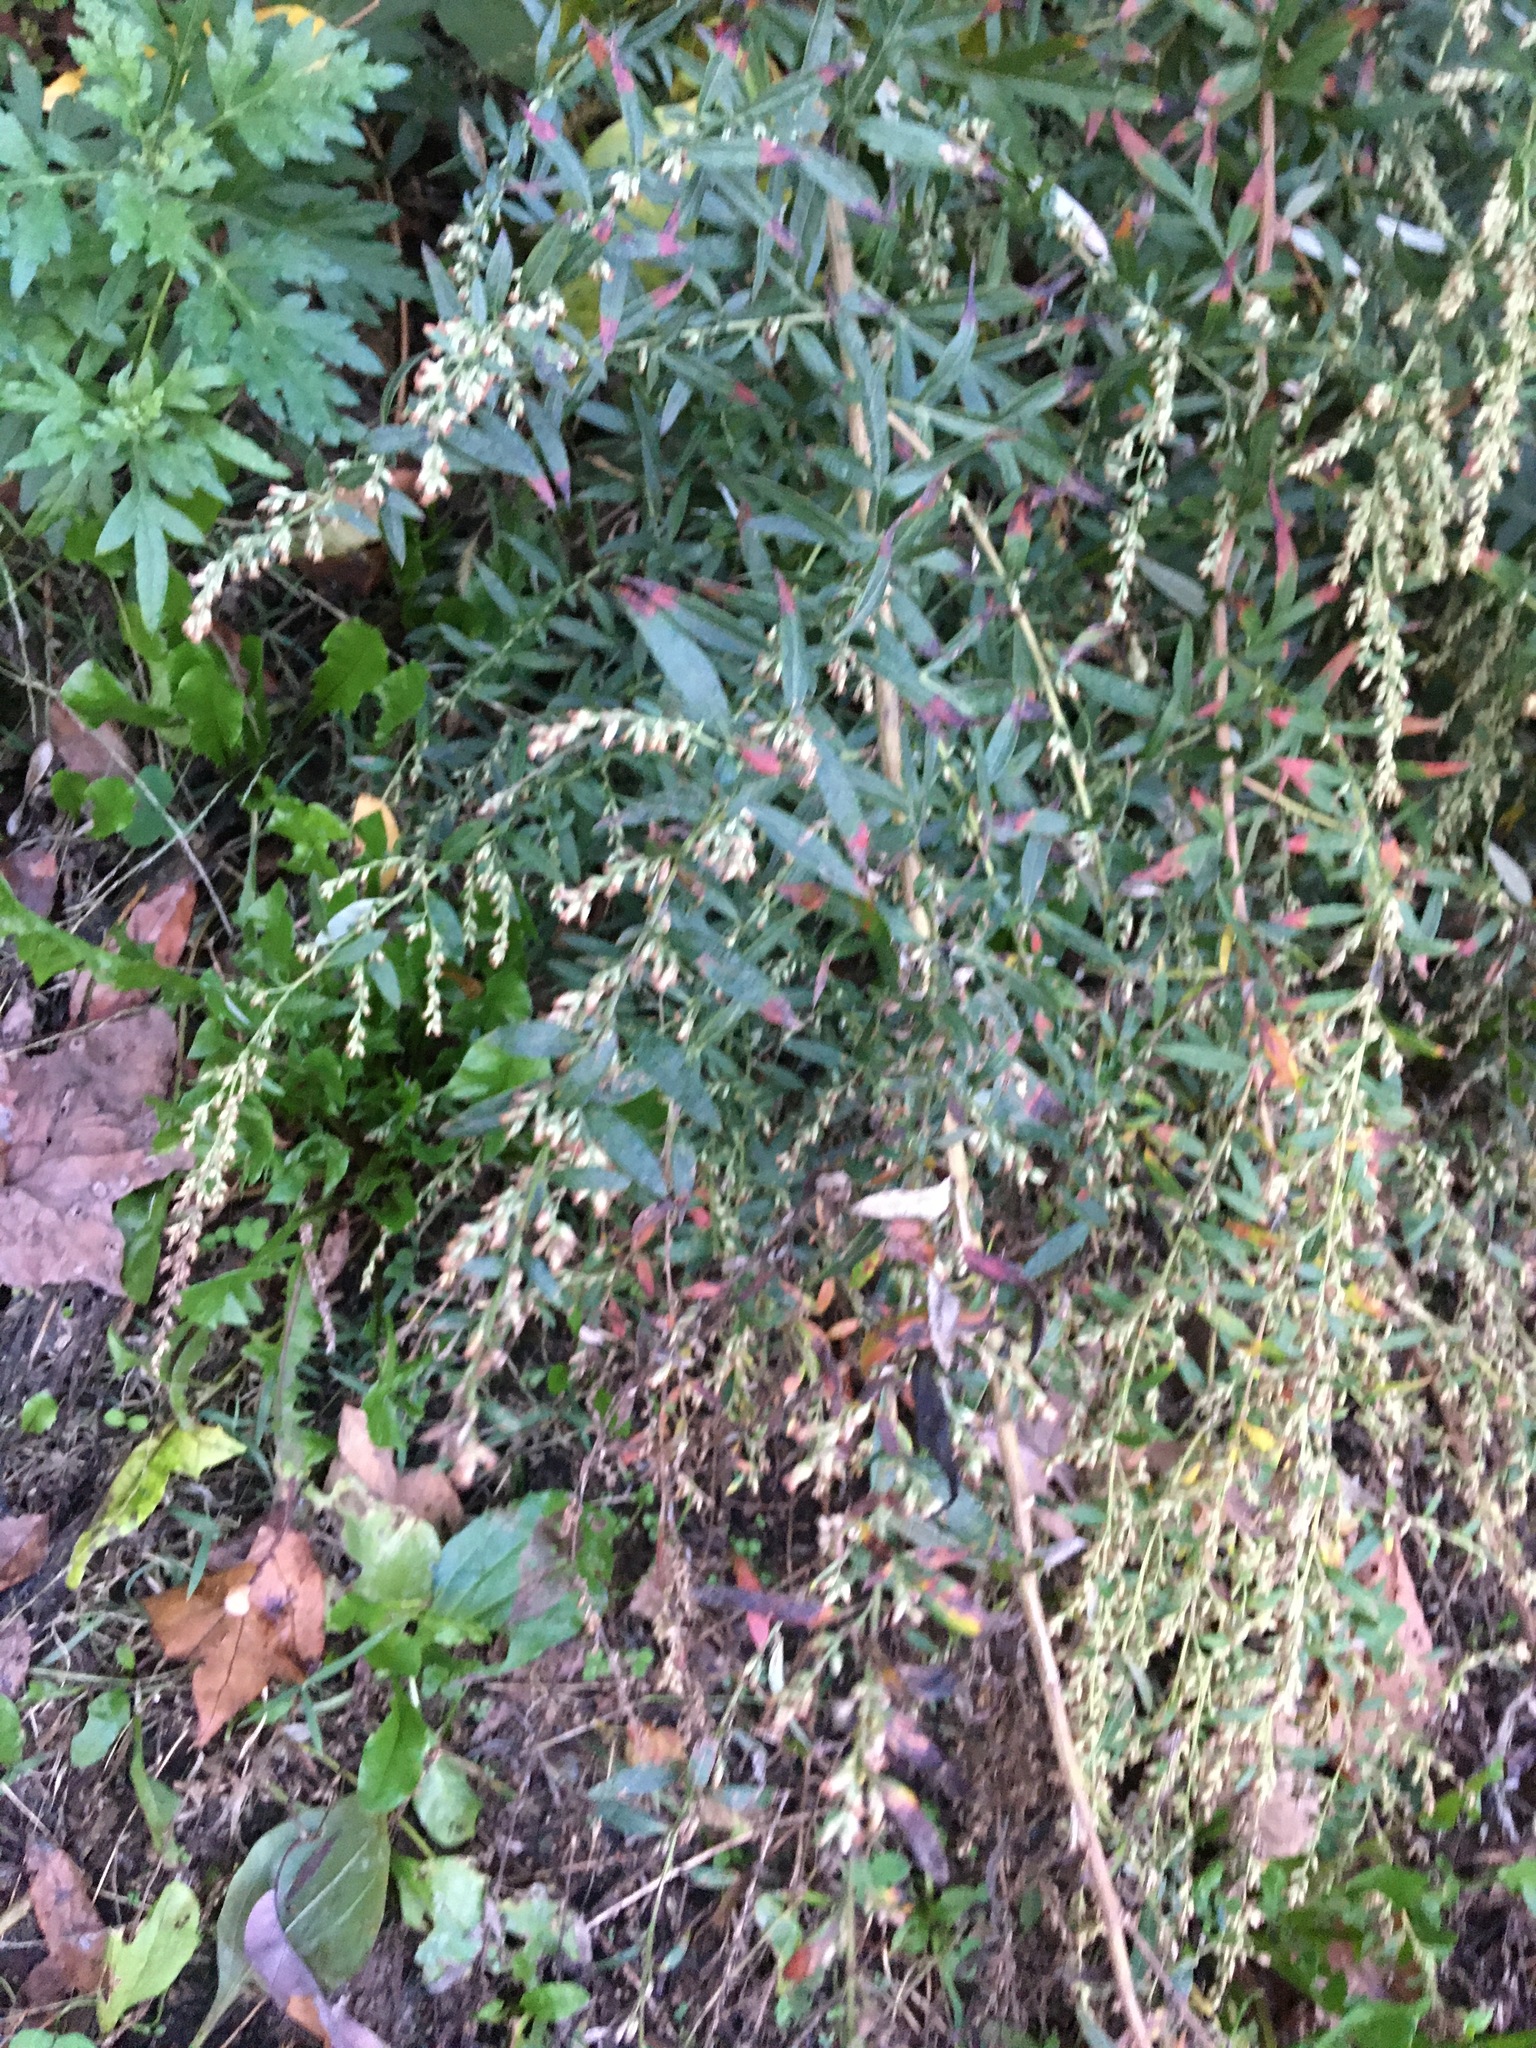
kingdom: Plantae
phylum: Tracheophyta
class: Magnoliopsida
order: Asterales
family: Asteraceae
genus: Artemisia
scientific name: Artemisia vulgaris
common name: Mugwort
